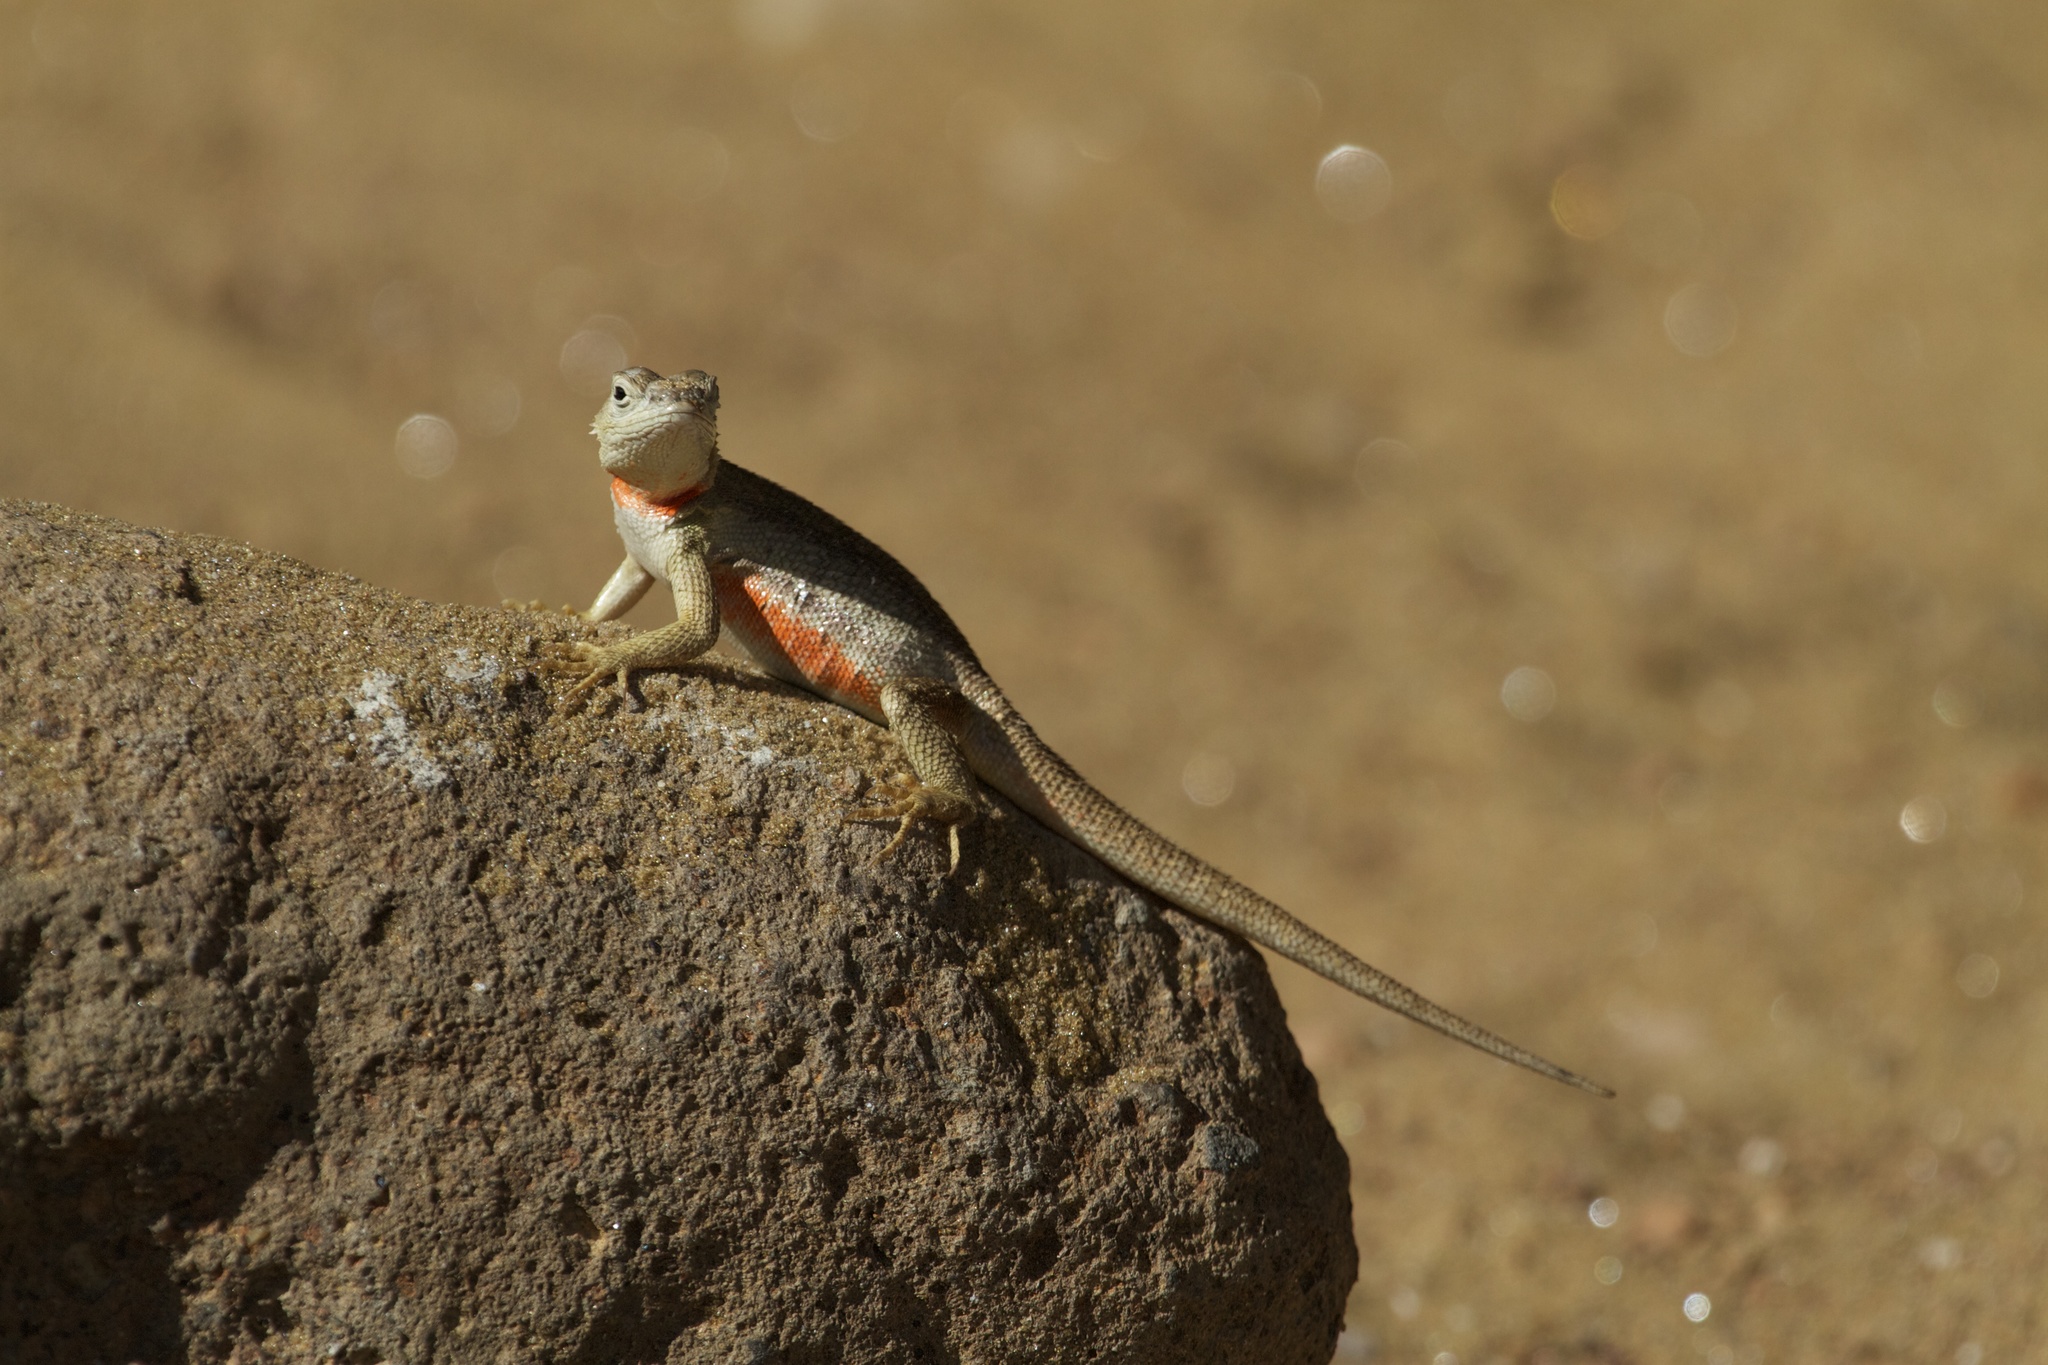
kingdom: Animalia
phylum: Chordata
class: Squamata
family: Tropiduridae
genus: Microlophus
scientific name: Microlophus bivittatus
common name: San cristobal lava lizard
